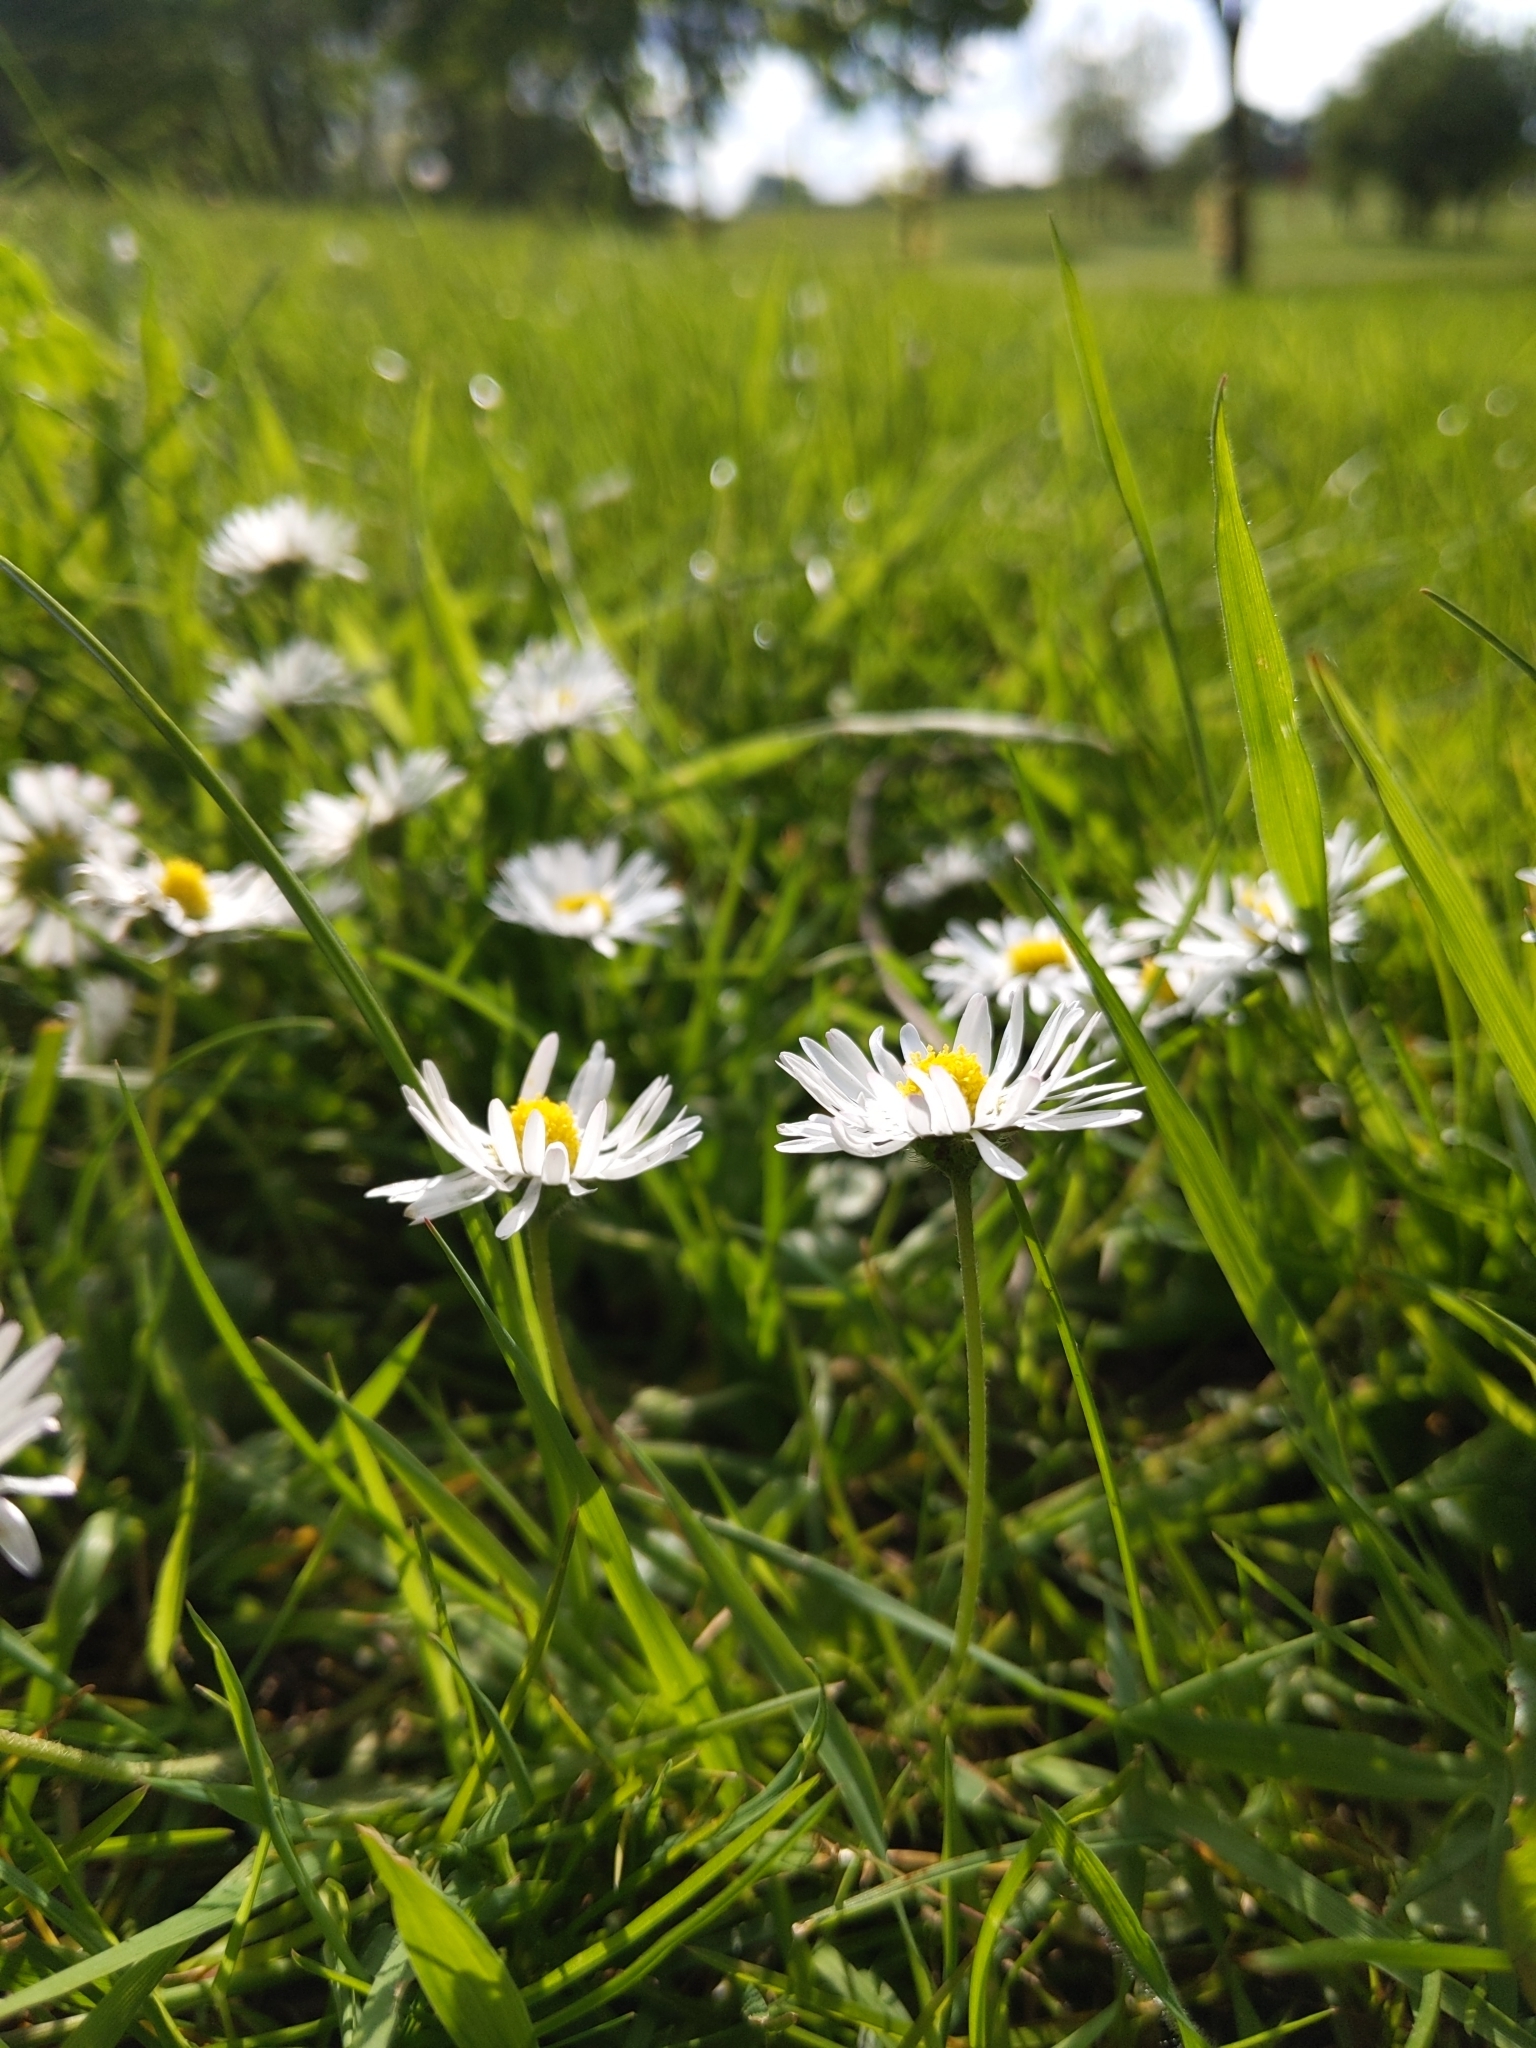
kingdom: Plantae
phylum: Tracheophyta
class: Magnoliopsida
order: Asterales
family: Asteraceae
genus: Bellis
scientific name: Bellis perennis
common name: Lawndaisy
